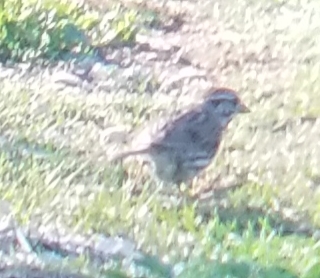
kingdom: Animalia
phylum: Chordata
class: Aves
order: Passeriformes
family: Passerellidae
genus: Melospiza
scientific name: Melospiza melodia
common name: Song sparrow
